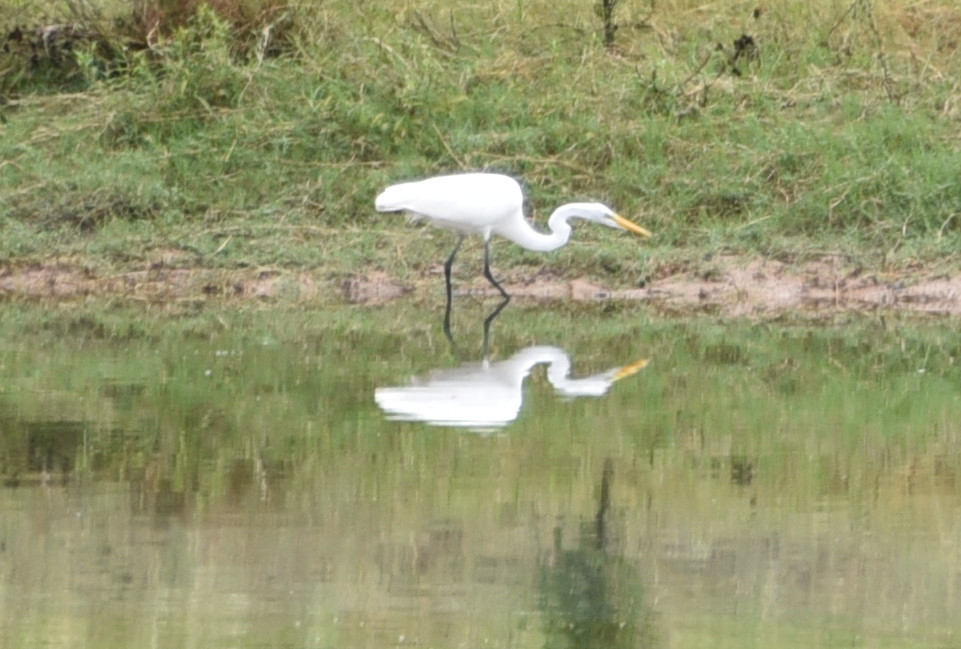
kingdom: Animalia
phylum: Chordata
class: Aves
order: Pelecaniformes
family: Ardeidae
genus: Ardea
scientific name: Ardea alba
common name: Great egret
